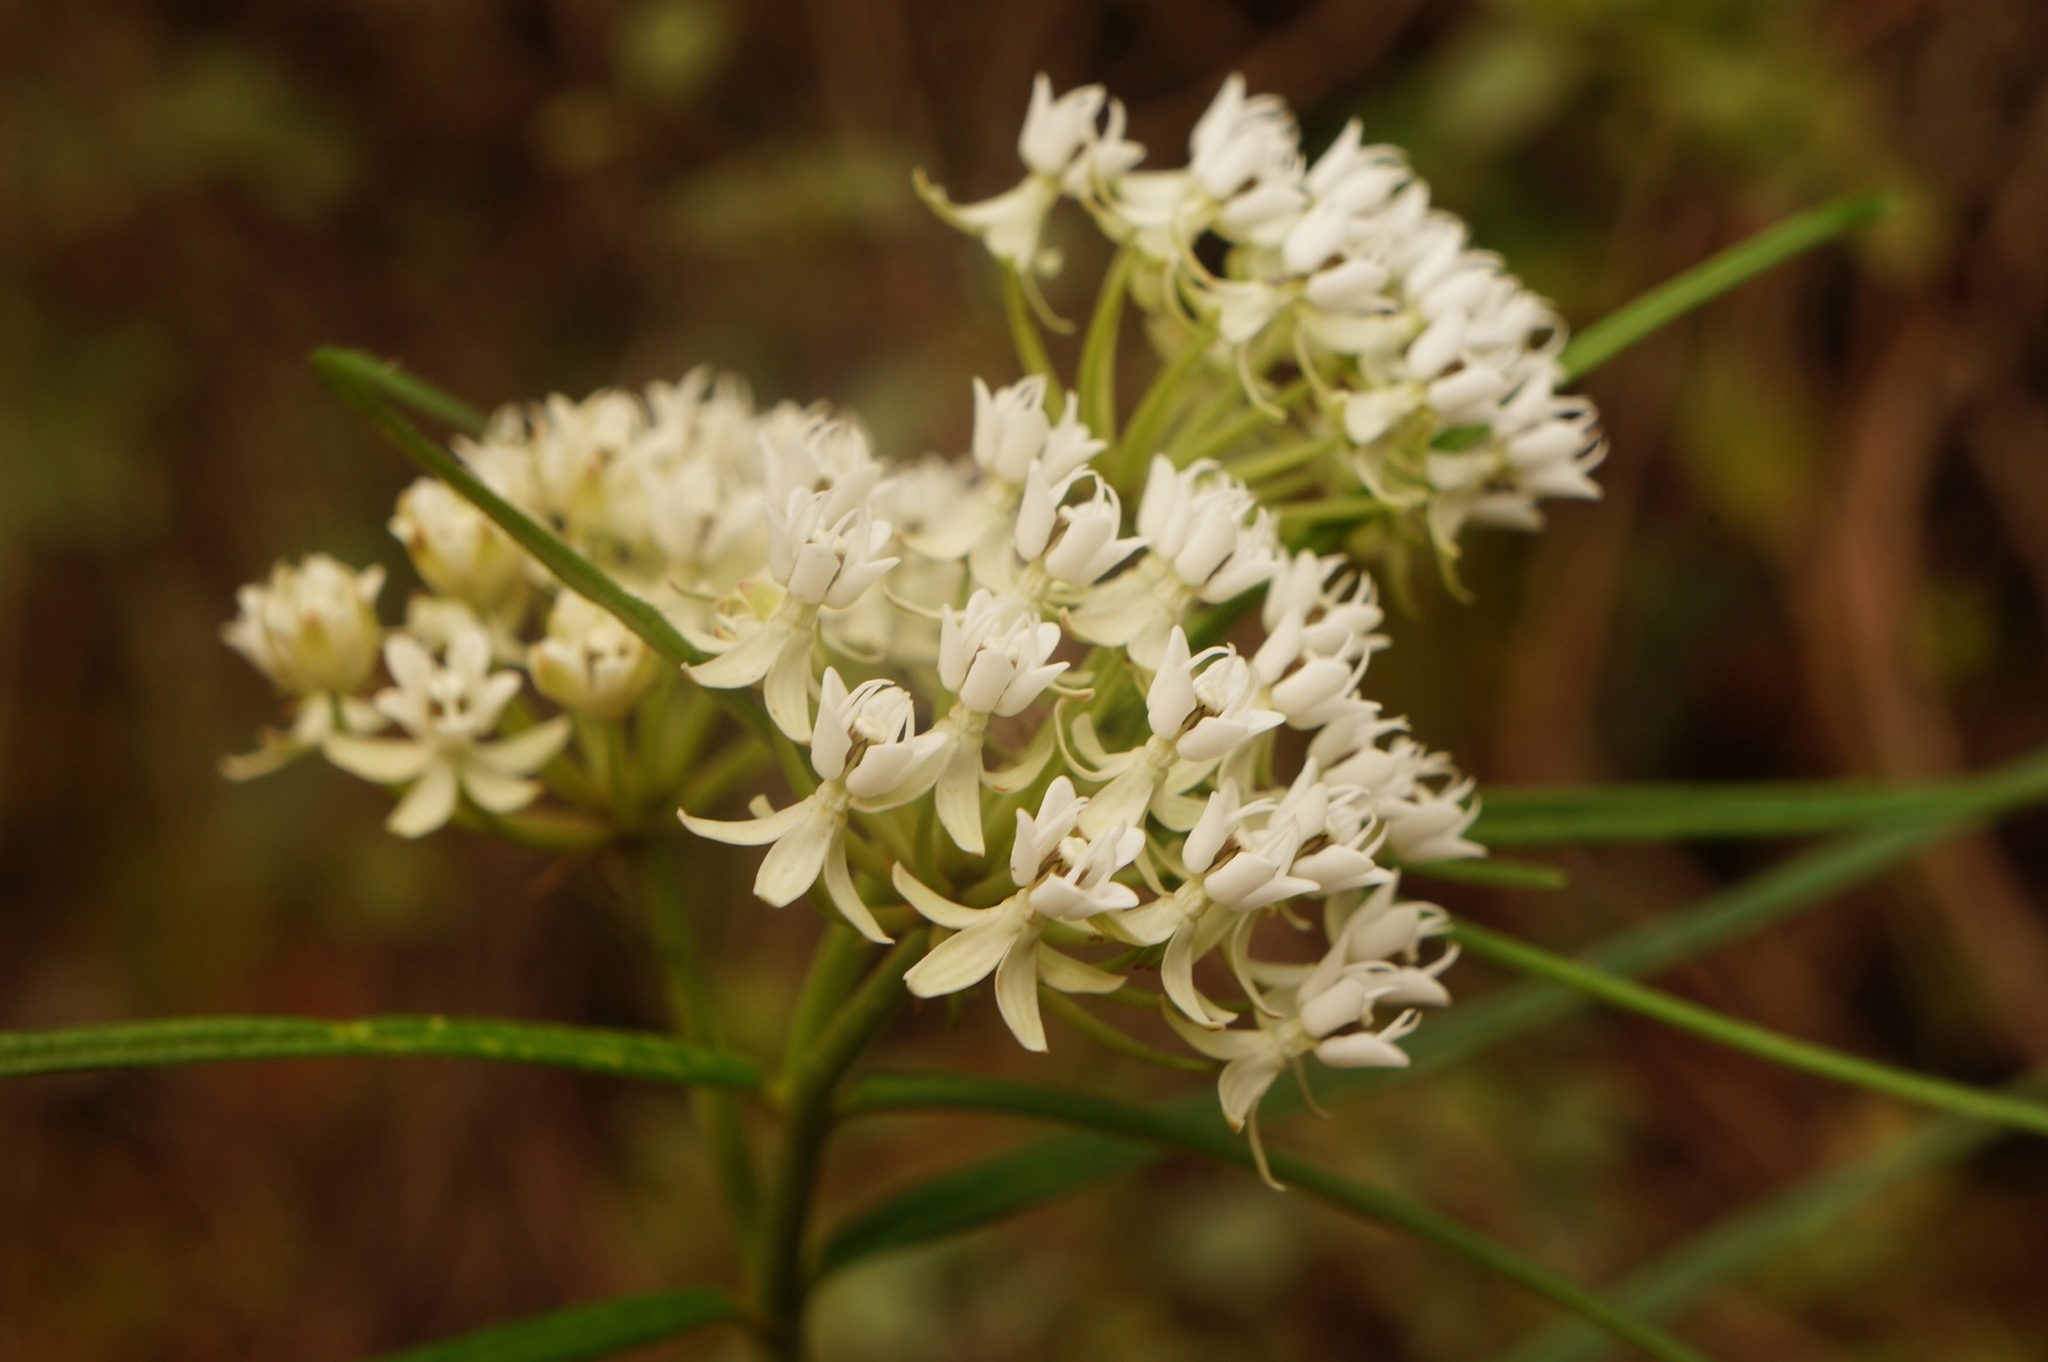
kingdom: Plantae
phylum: Tracheophyta
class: Magnoliopsida
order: Gentianales
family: Apocynaceae
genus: Asclepias
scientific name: Asclepias angustifolia
